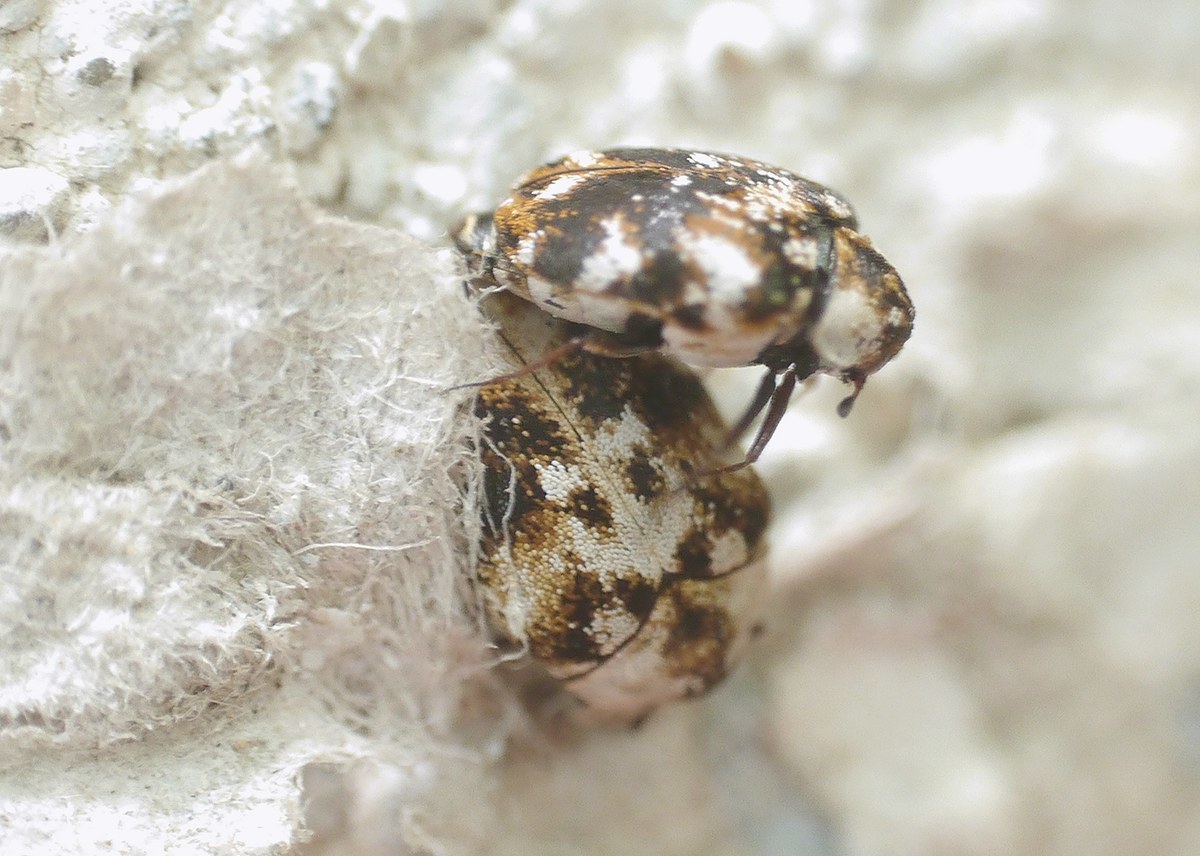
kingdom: Animalia
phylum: Arthropoda
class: Insecta
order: Coleoptera
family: Dermestidae
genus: Anthrenus
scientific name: Anthrenus picturatus
